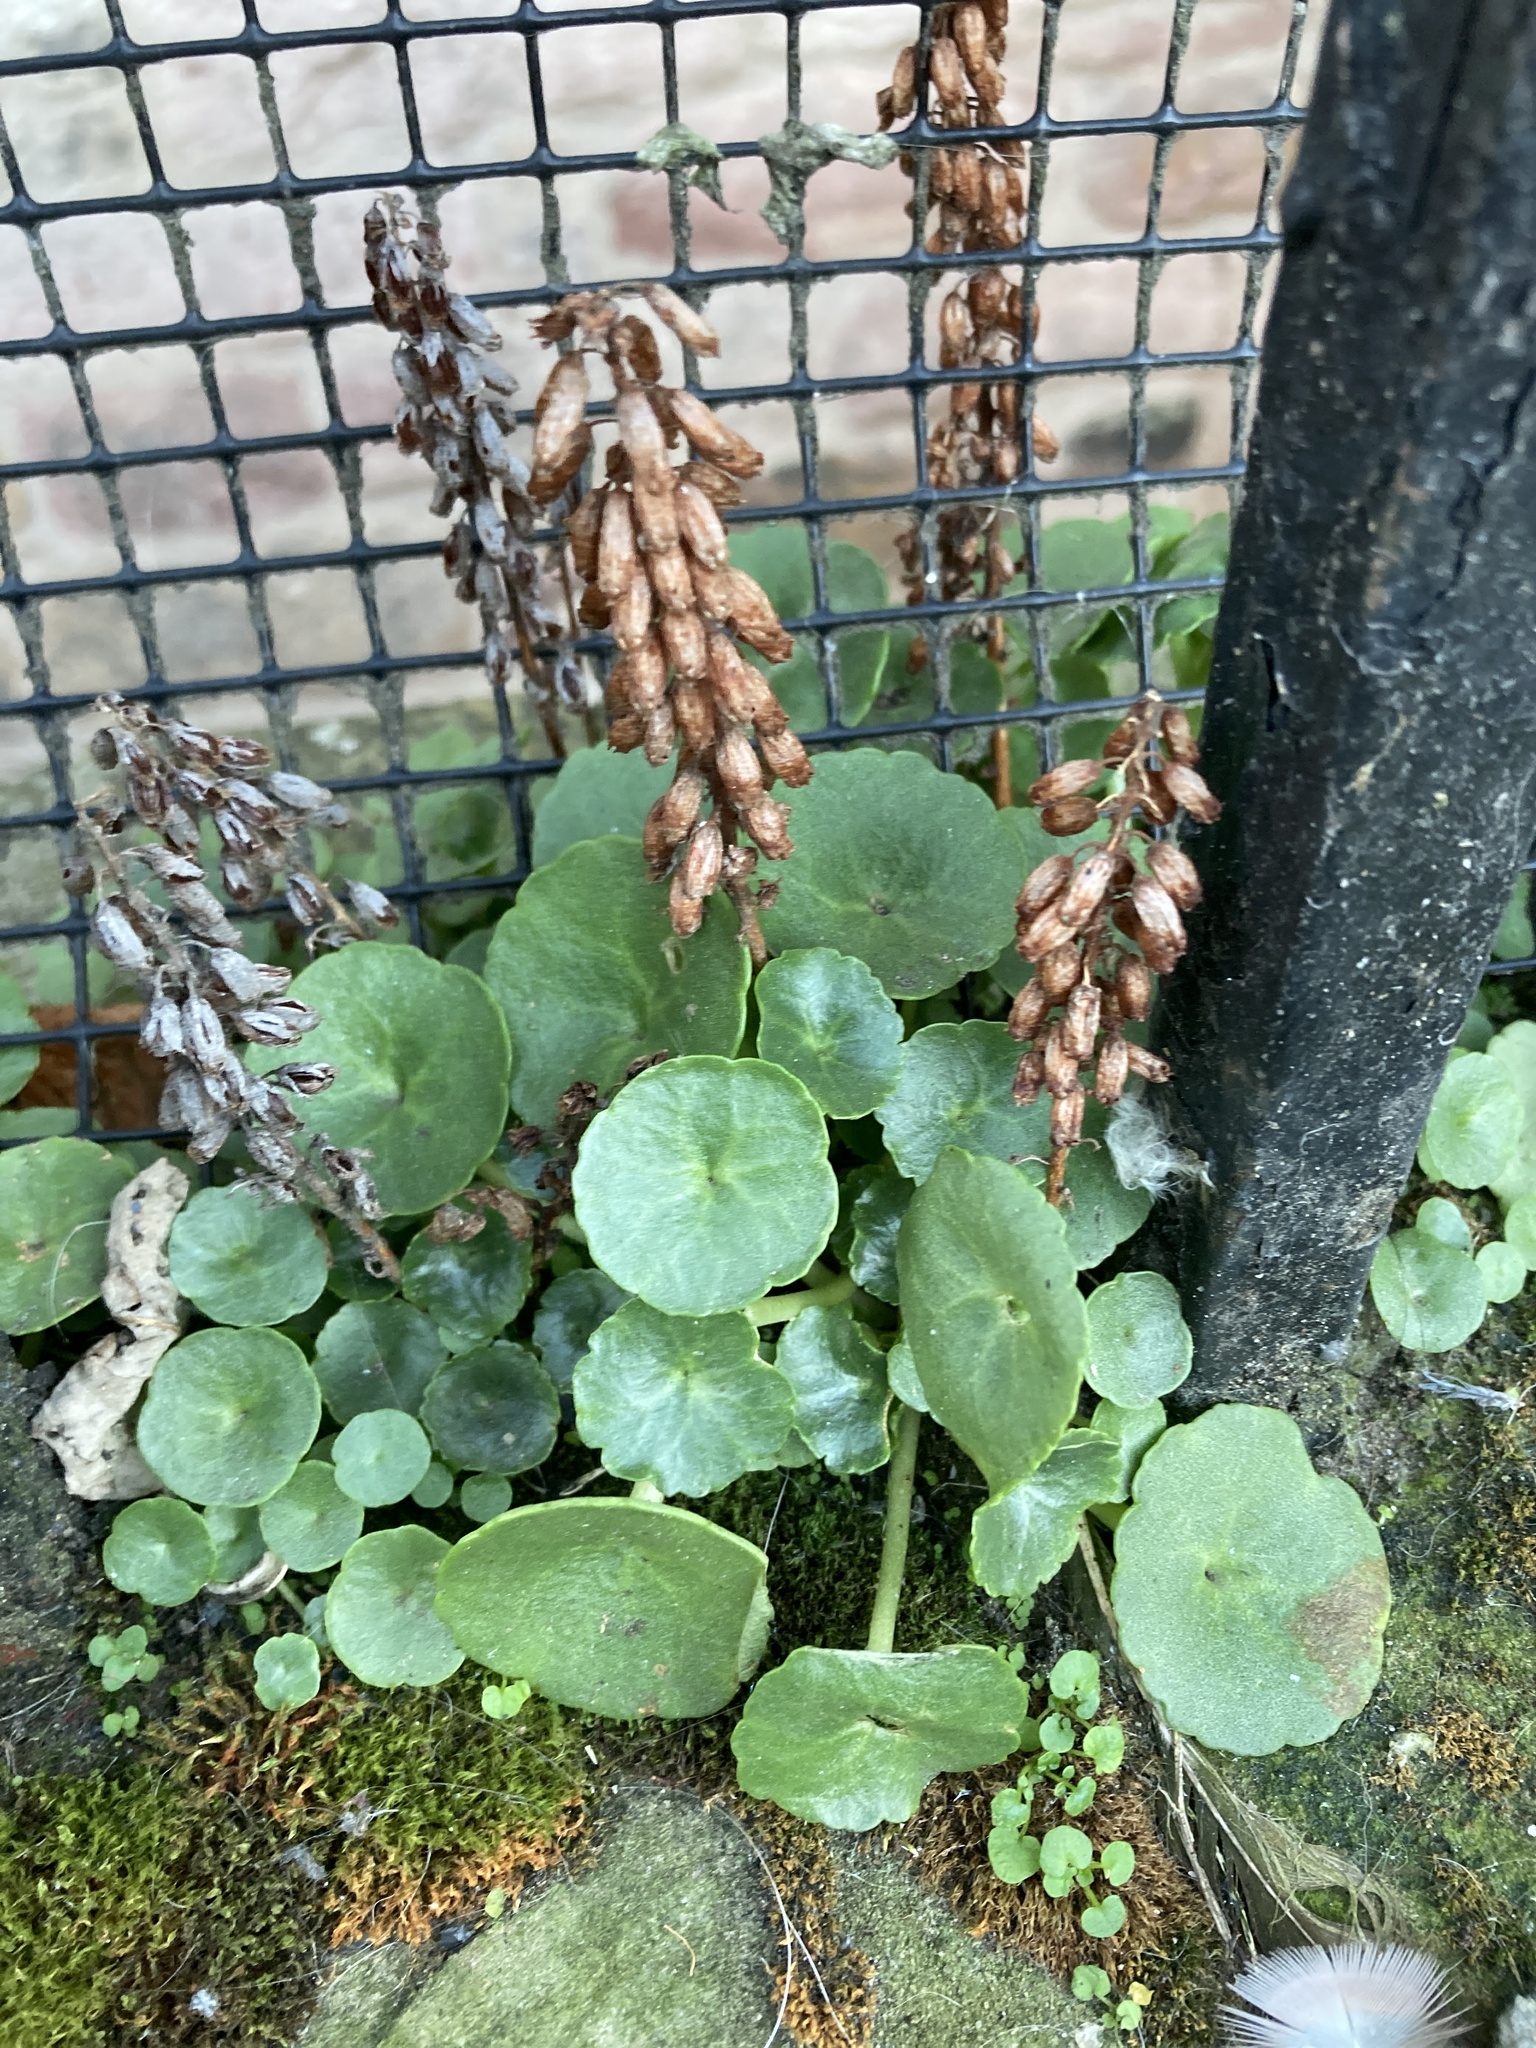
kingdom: Plantae
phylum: Tracheophyta
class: Magnoliopsida
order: Saxifragales
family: Crassulaceae
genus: Umbilicus
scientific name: Umbilicus rupestris
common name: Navelwort
